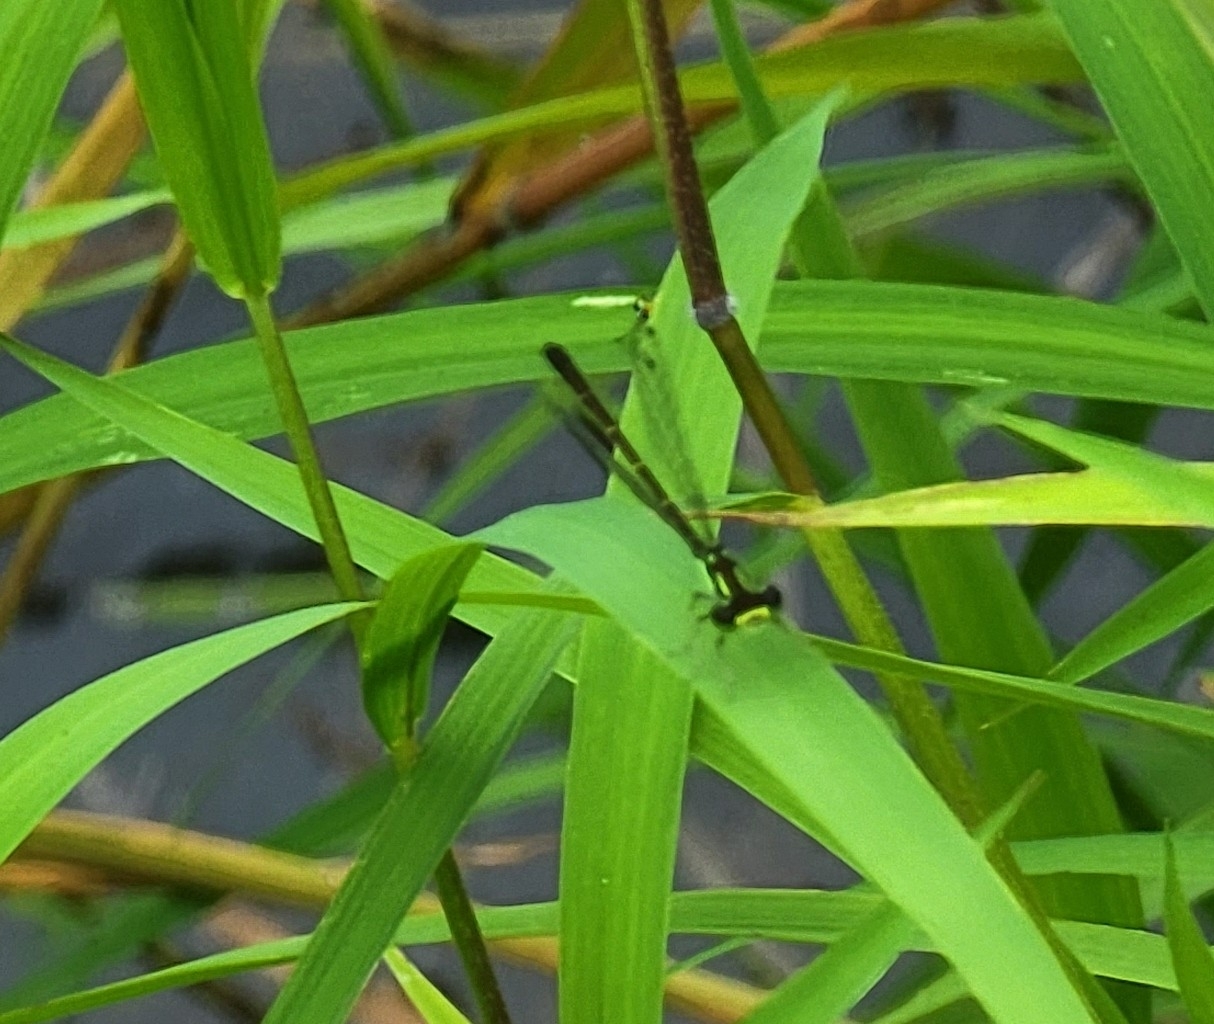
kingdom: Animalia
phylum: Arthropoda
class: Insecta
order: Odonata
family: Coenagrionidae
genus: Ischnura
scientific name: Ischnura posita
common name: Fragile forktail
